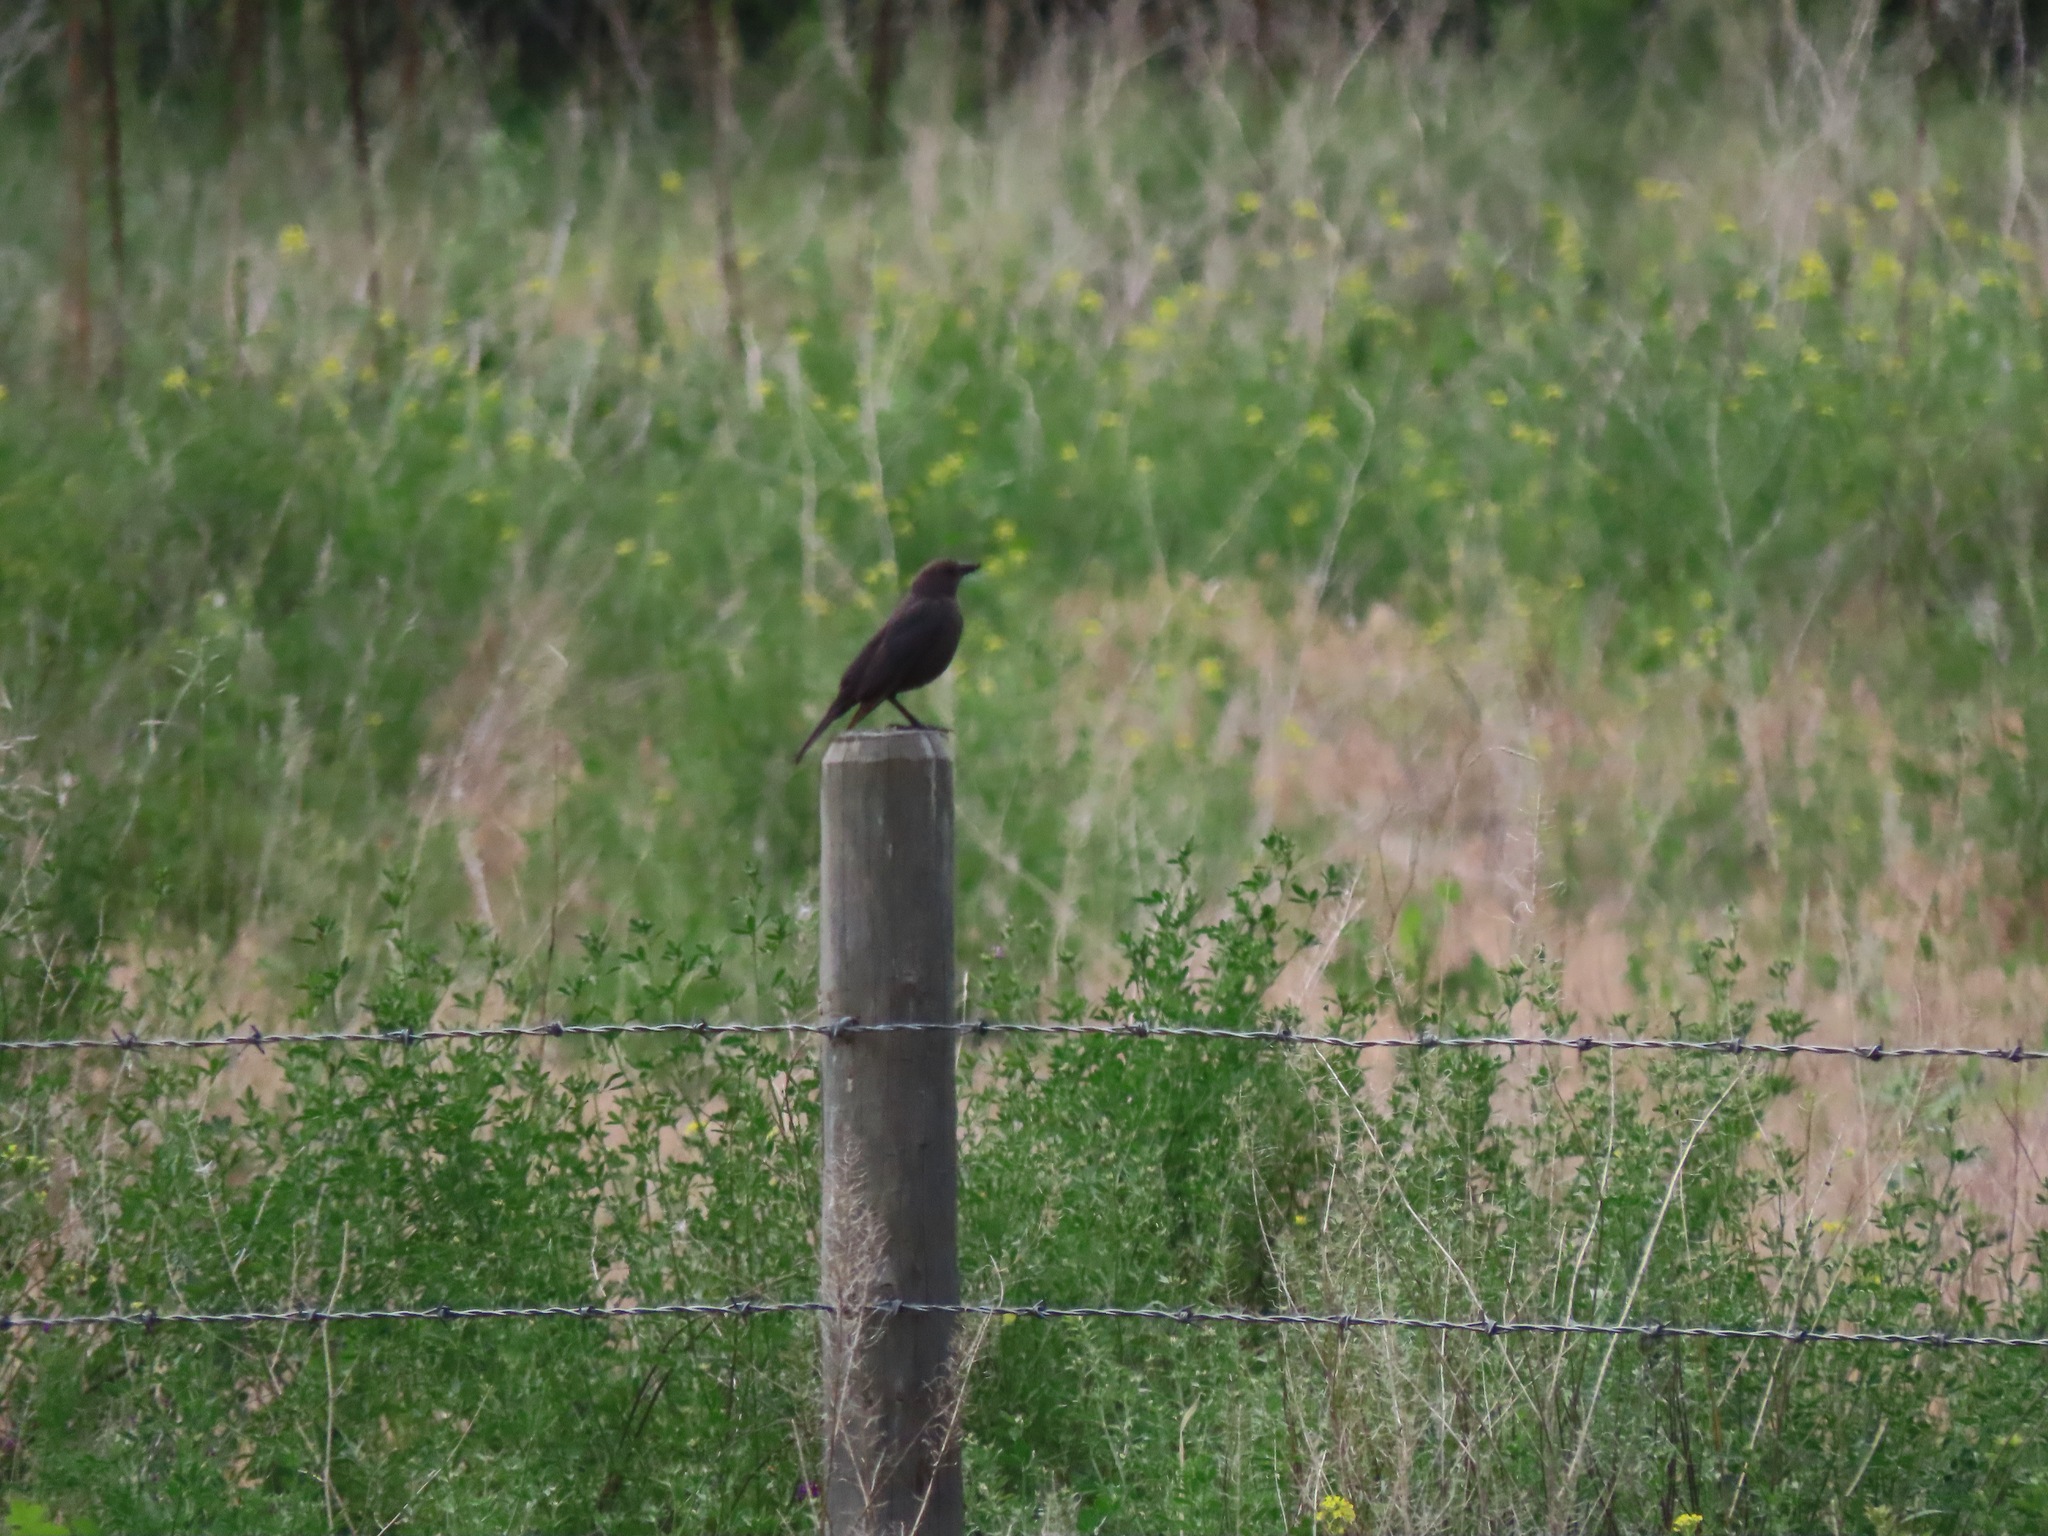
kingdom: Animalia
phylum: Chordata
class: Aves
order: Passeriformes
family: Icteridae
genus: Molothrus
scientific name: Molothrus ater
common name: Brown-headed cowbird
